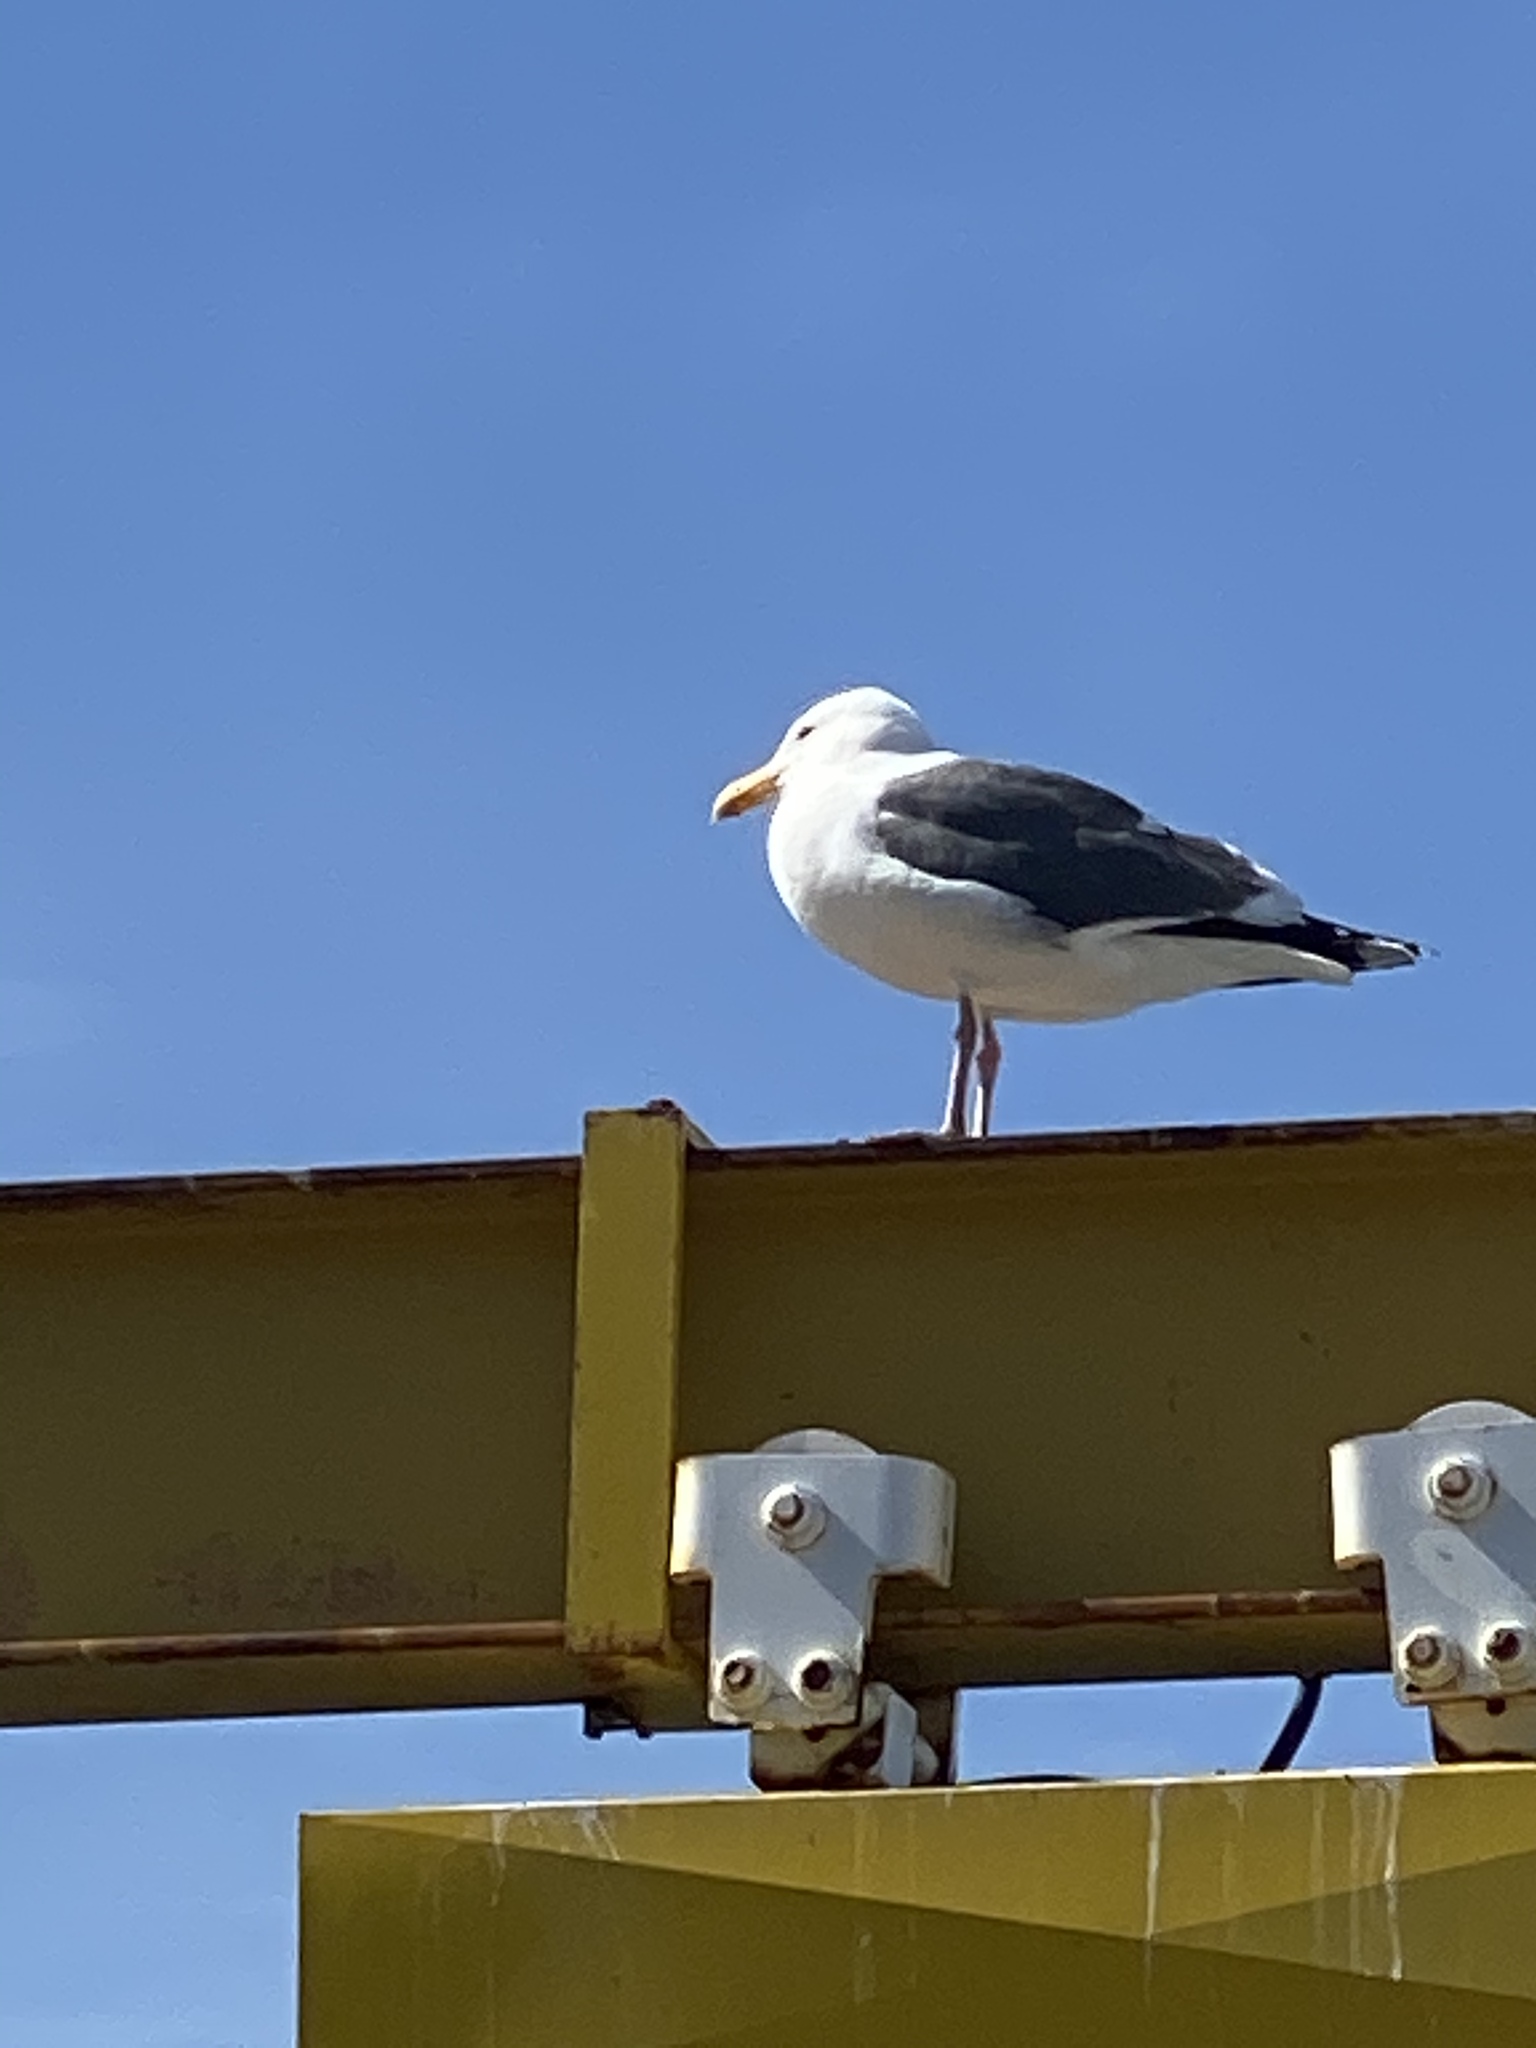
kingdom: Animalia
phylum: Chordata
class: Aves
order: Charadriiformes
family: Laridae
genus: Larus
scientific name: Larus occidentalis
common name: Western gull
